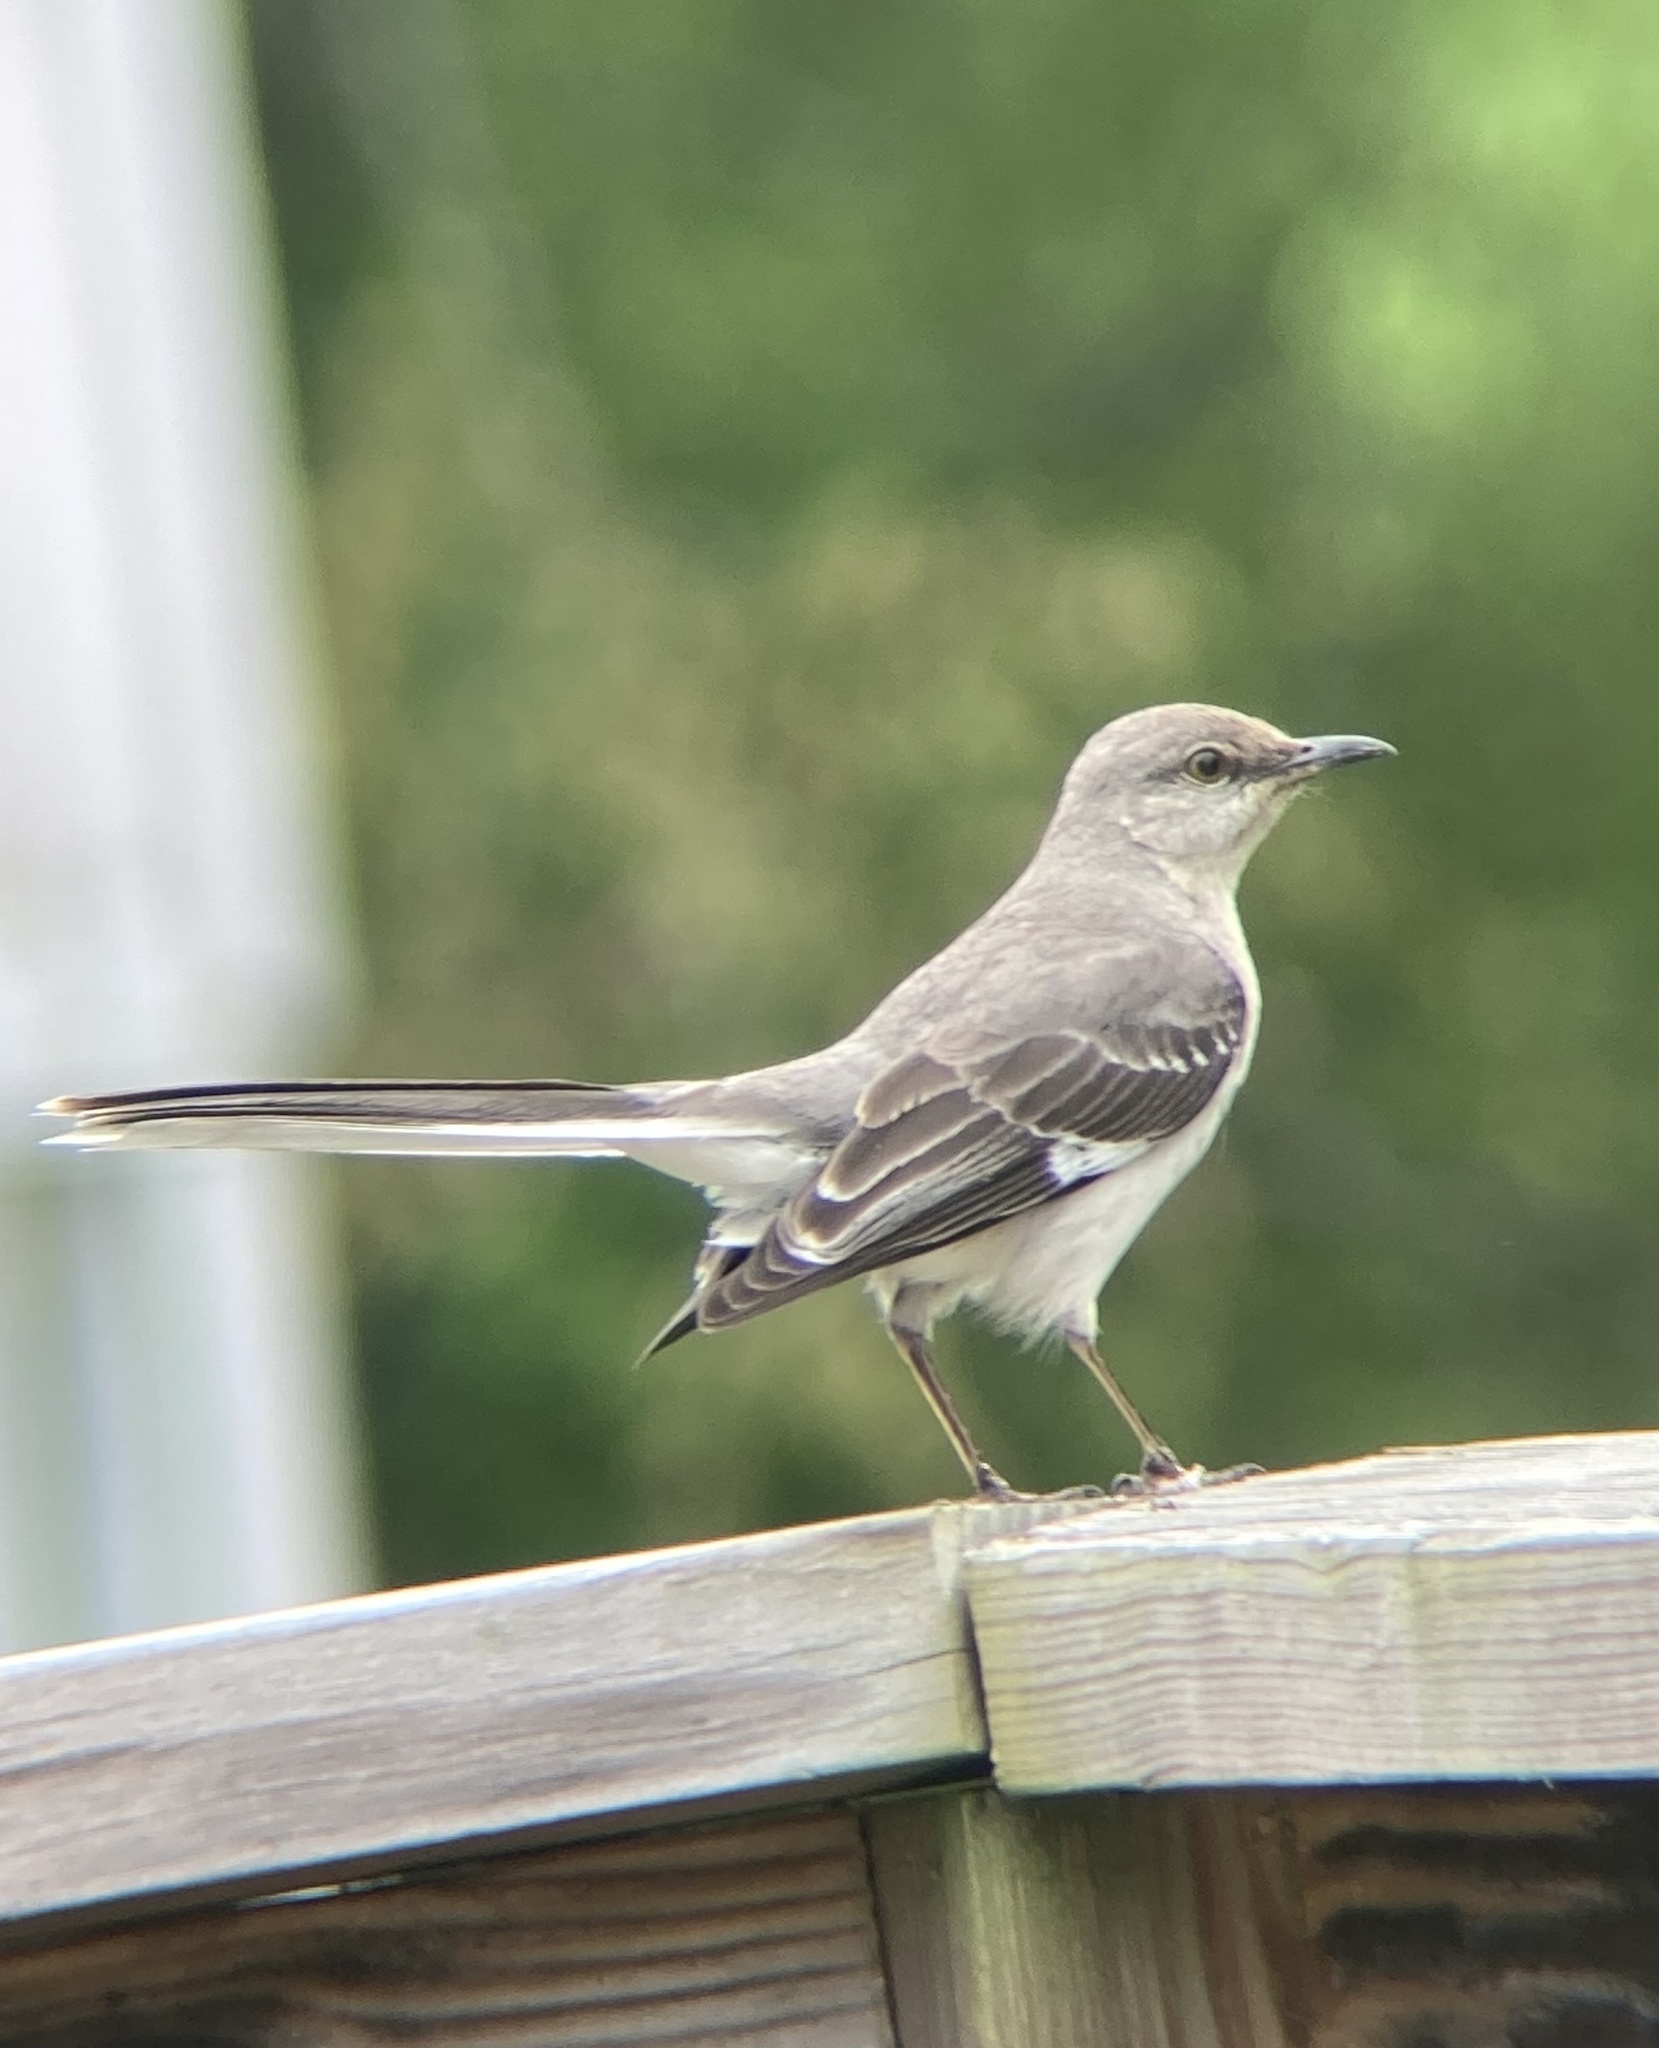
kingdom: Animalia
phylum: Chordata
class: Aves
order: Passeriformes
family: Mimidae
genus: Mimus
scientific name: Mimus polyglottos
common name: Northern mockingbird
